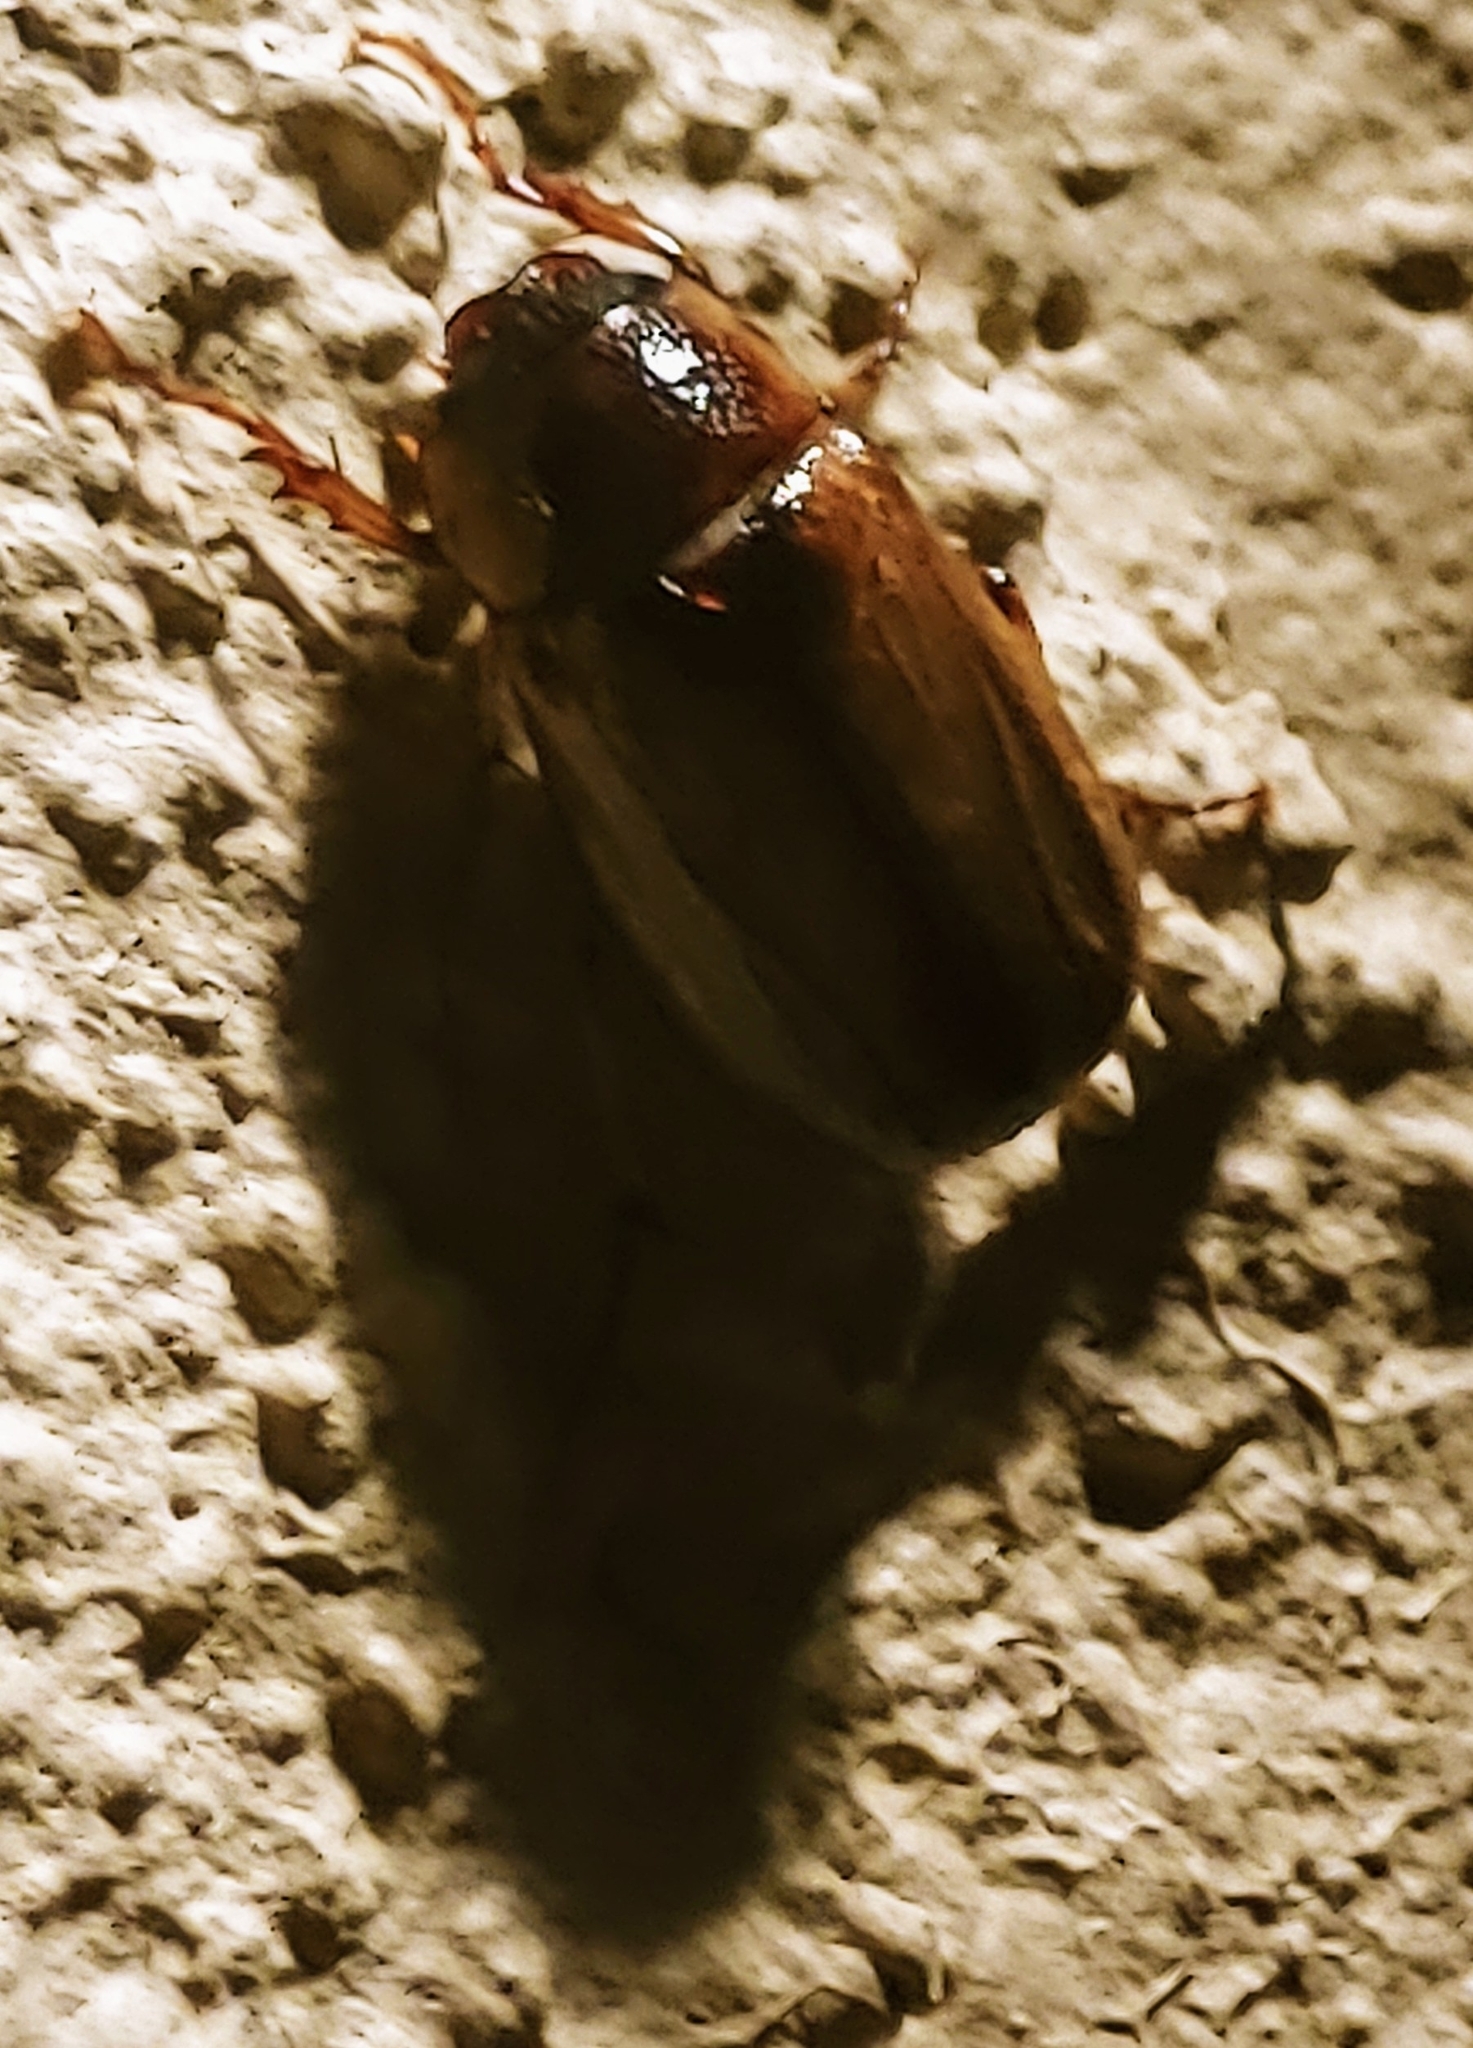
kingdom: Animalia
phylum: Arthropoda
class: Insecta
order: Coleoptera
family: Scarabaeidae
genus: Phyllophaga
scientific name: Phyllophaga bruneri
